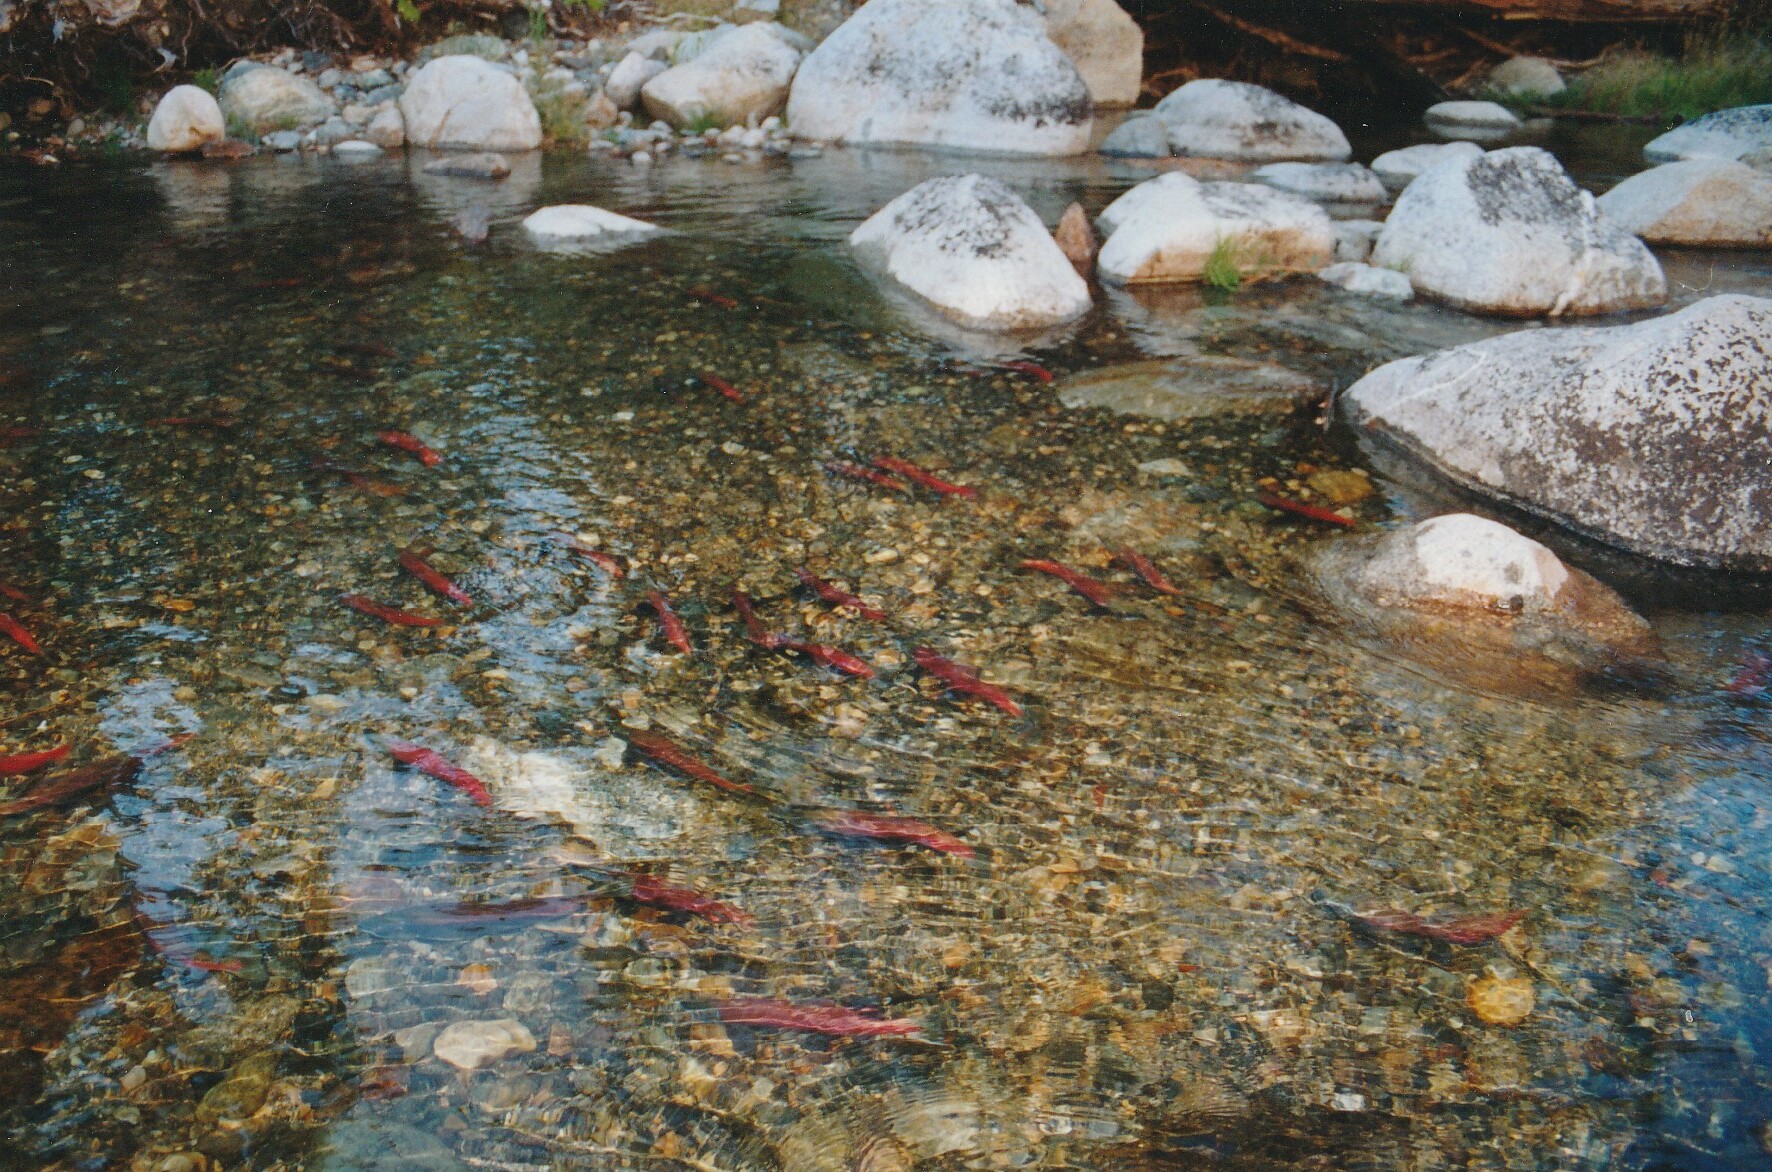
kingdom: Animalia
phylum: Chordata
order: Salmoniformes
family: Salmonidae
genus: Oncorhynchus
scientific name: Oncorhynchus nerka
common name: Sockeye salmon
